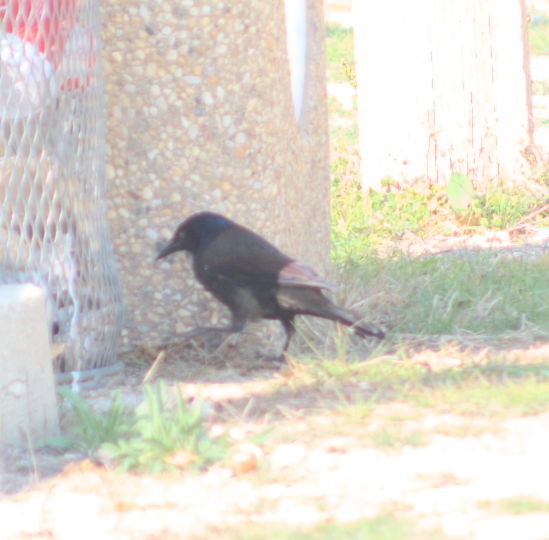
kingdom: Animalia
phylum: Chordata
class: Aves
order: Passeriformes
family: Icteridae
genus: Quiscalus
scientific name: Quiscalus quiscula
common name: Common grackle
